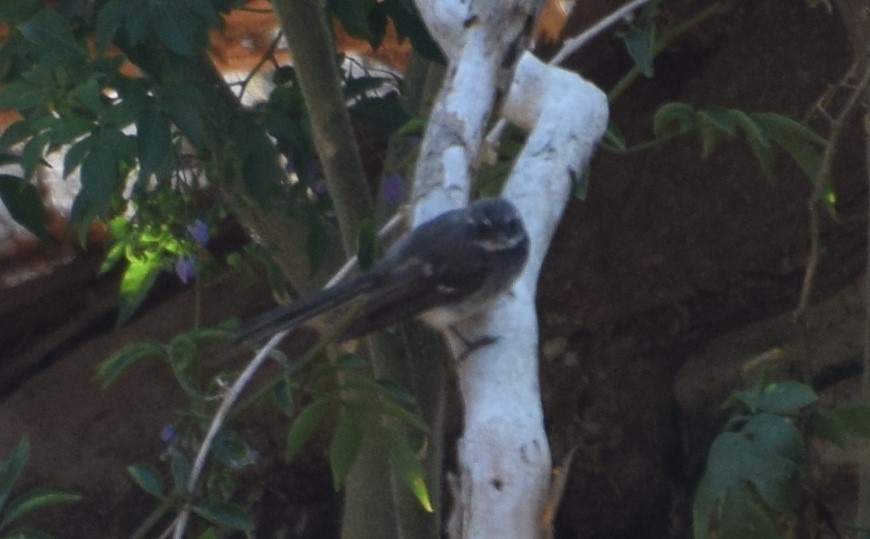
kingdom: Animalia
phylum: Chordata
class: Aves
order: Passeriformes
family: Rhipiduridae
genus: Rhipidura
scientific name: Rhipidura albiscapa
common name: Grey fantail
